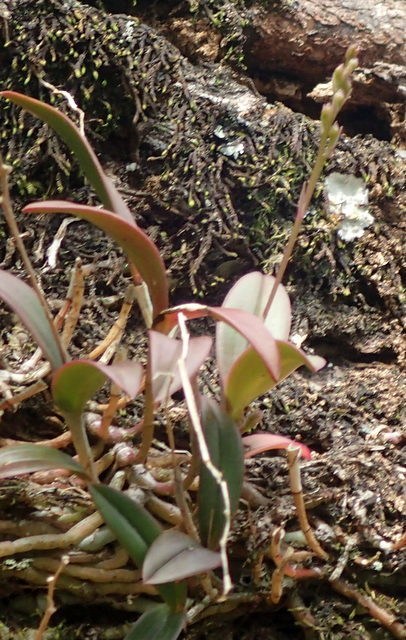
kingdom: Plantae
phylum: Tracheophyta
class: Liliopsida
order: Asparagales
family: Orchidaceae
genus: Epidendrum
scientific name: Epidendrum conopseum
